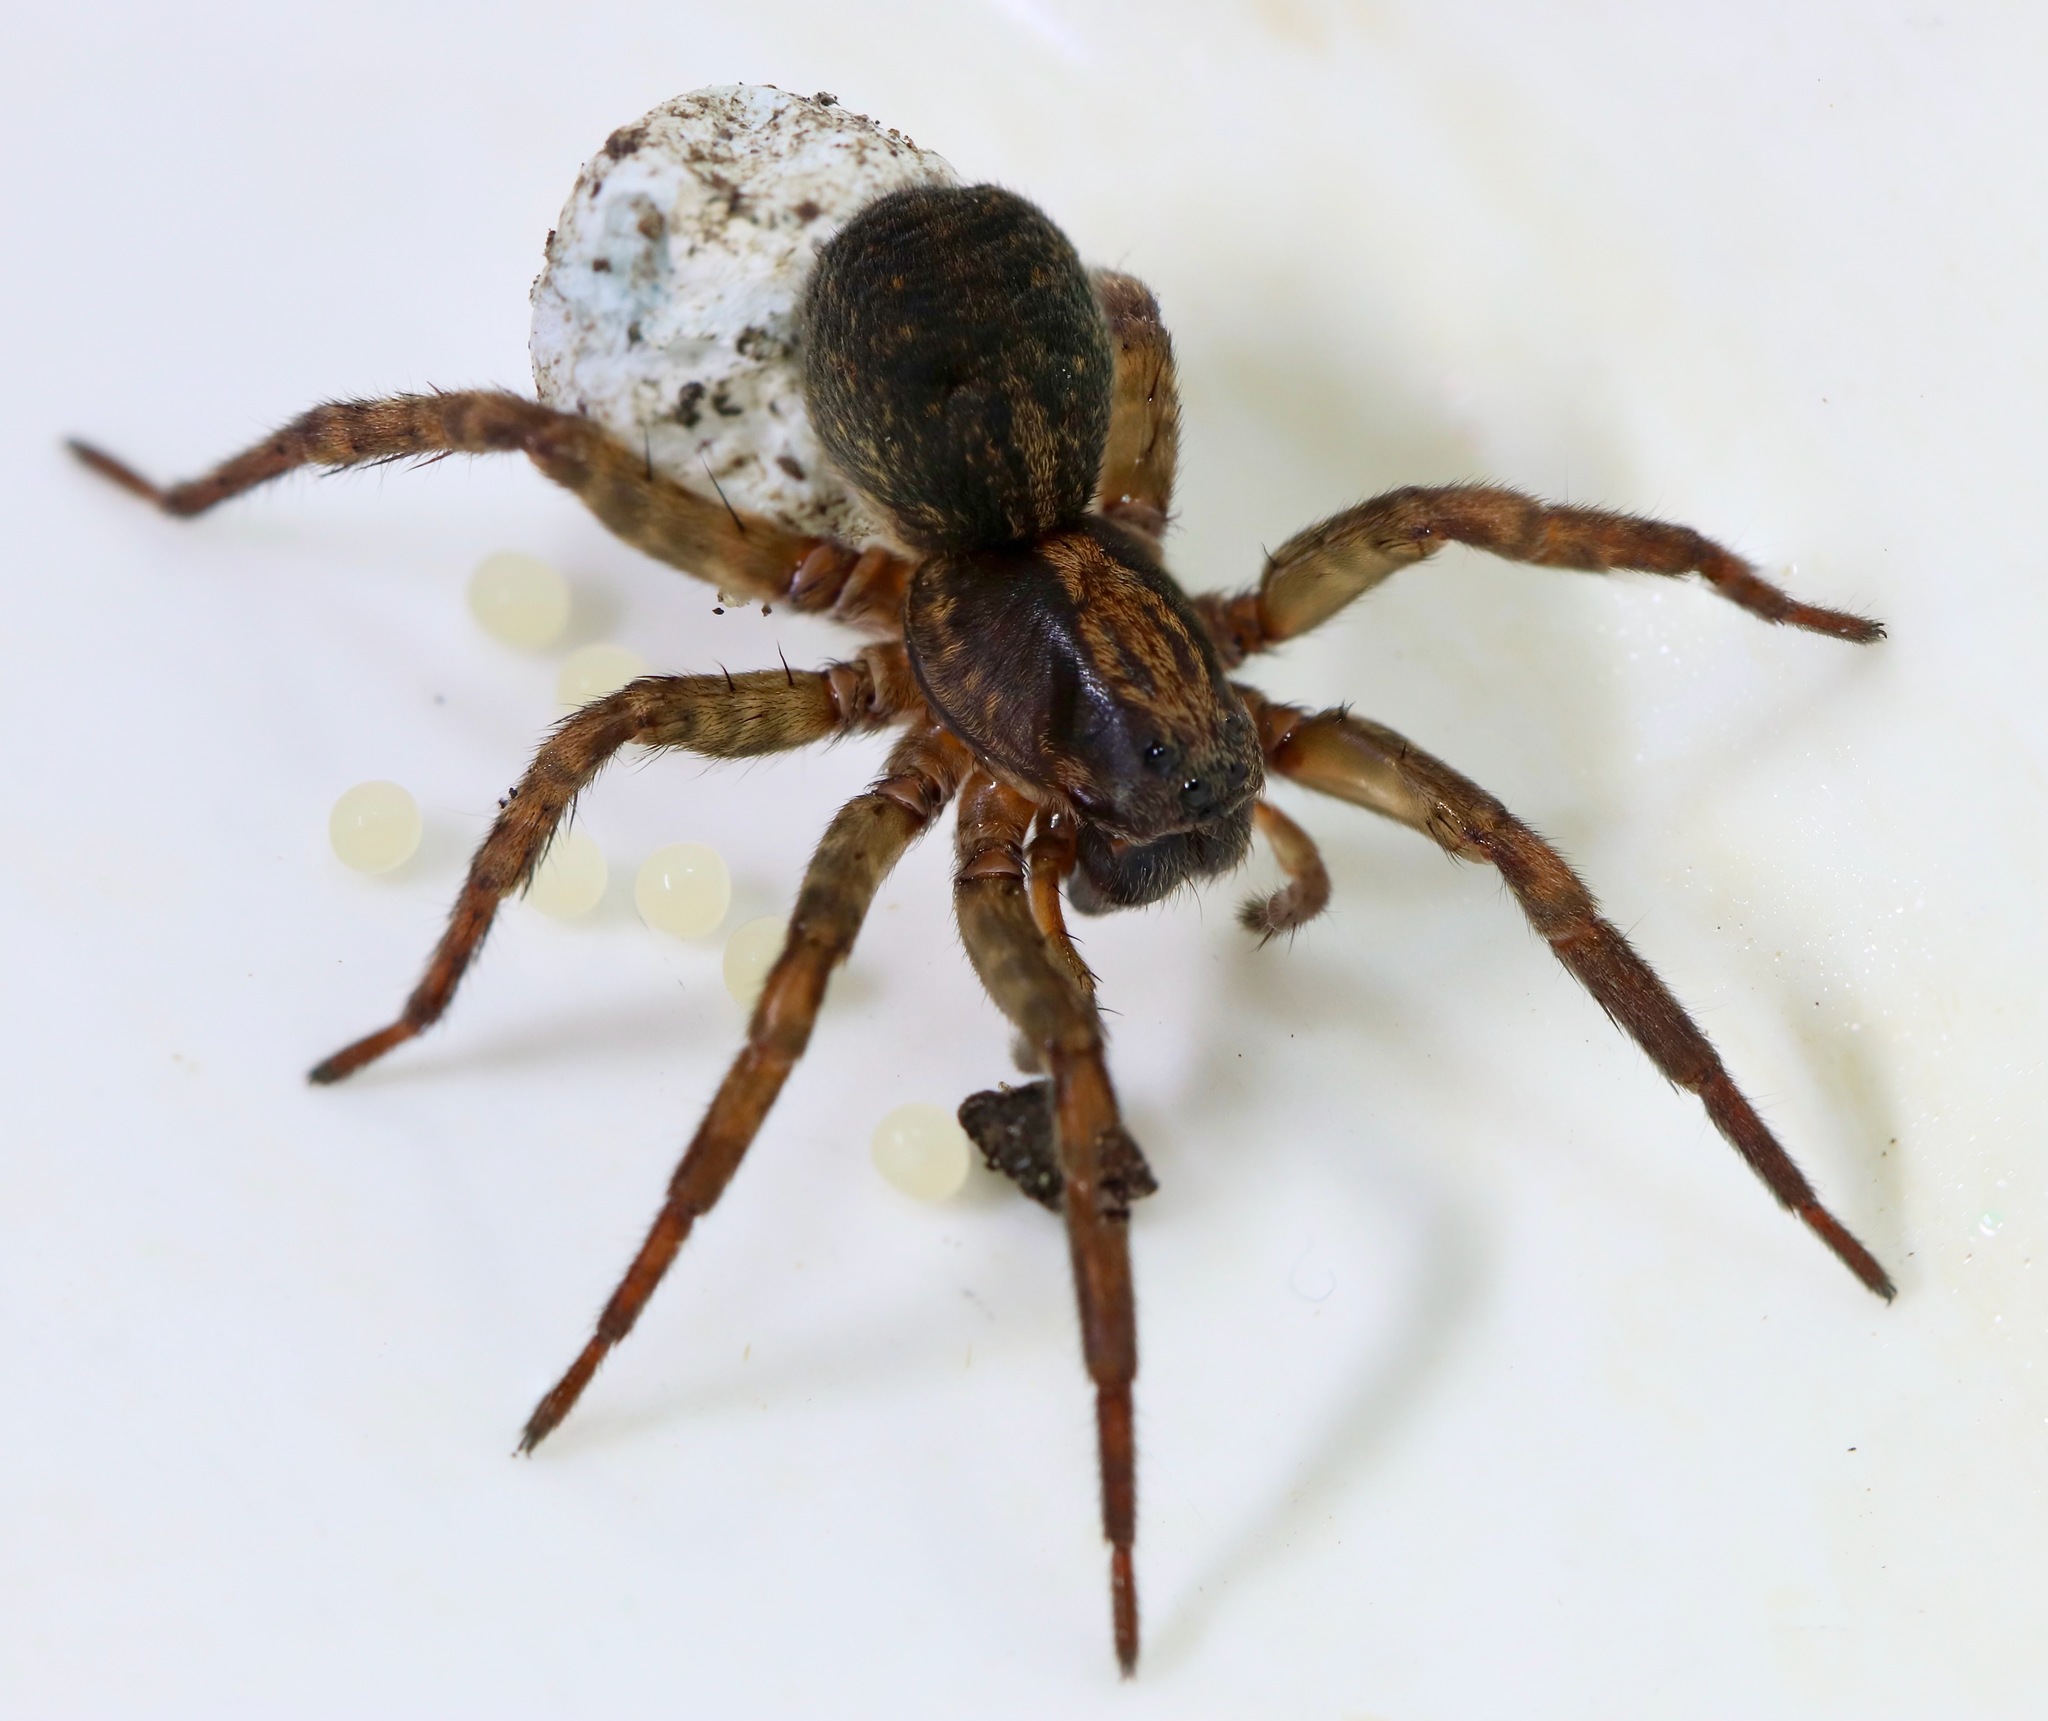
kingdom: Animalia
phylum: Arthropoda
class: Arachnida
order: Araneae
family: Lycosidae
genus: Trochosa
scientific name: Trochosa terricola
